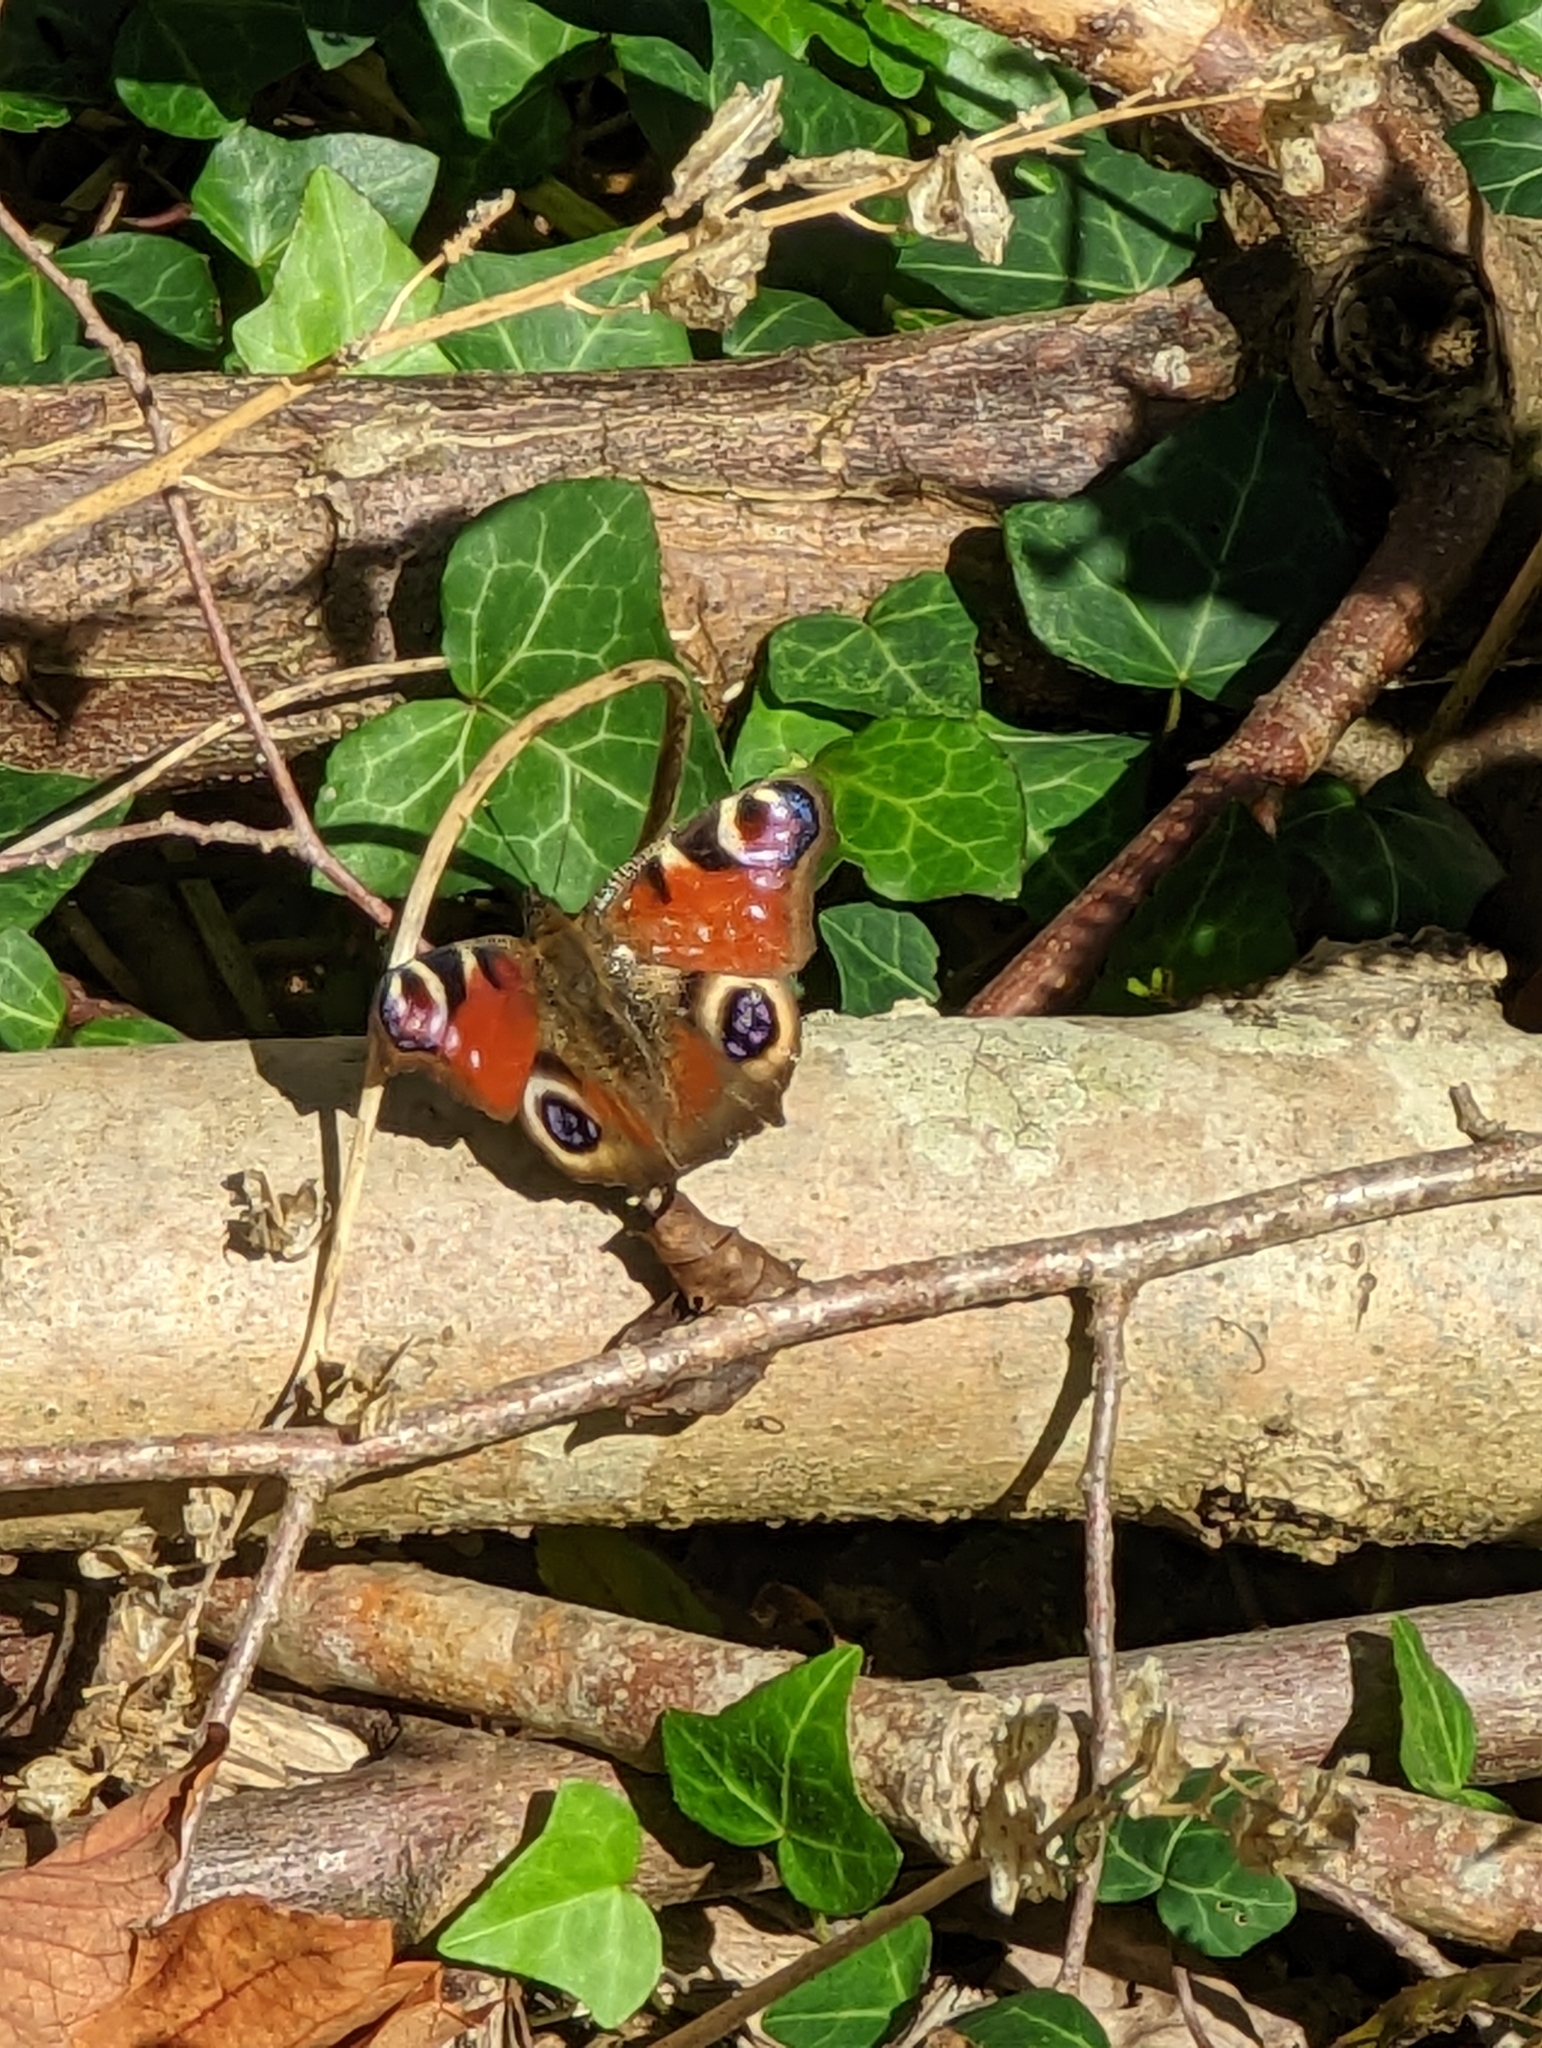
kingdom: Animalia
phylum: Arthropoda
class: Insecta
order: Lepidoptera
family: Nymphalidae
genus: Aglais
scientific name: Aglais io
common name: Peacock
